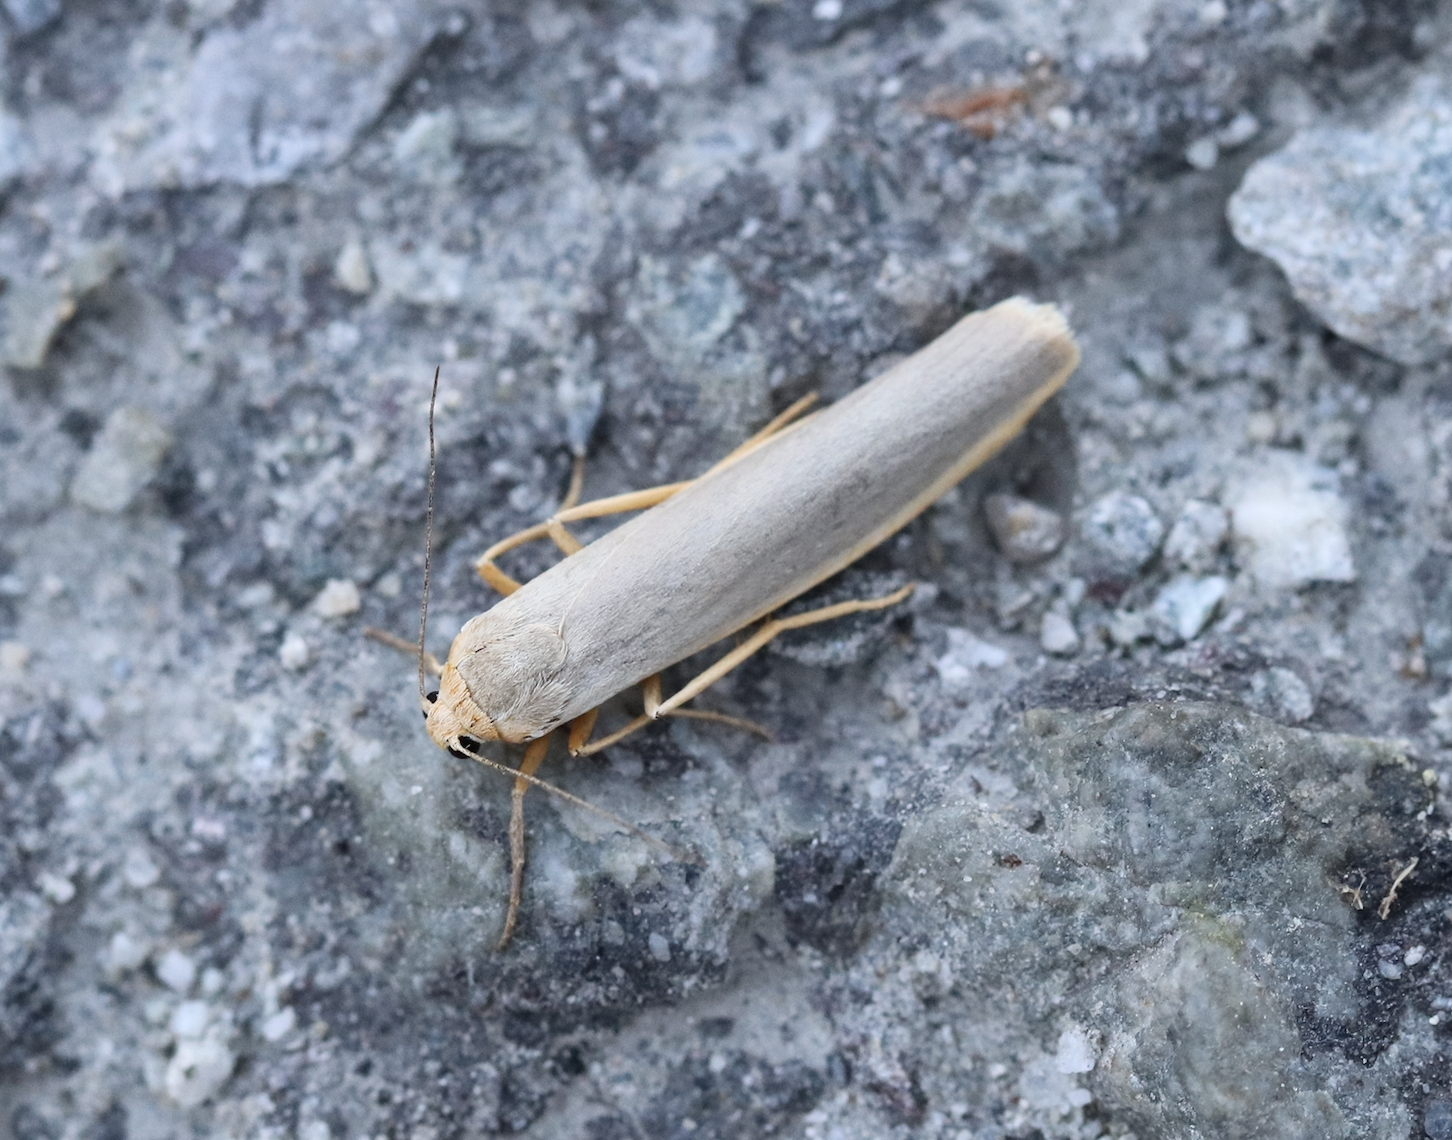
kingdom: Animalia
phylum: Arthropoda
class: Insecta
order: Lepidoptera
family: Erebidae
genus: Manulea
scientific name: Manulea complana
